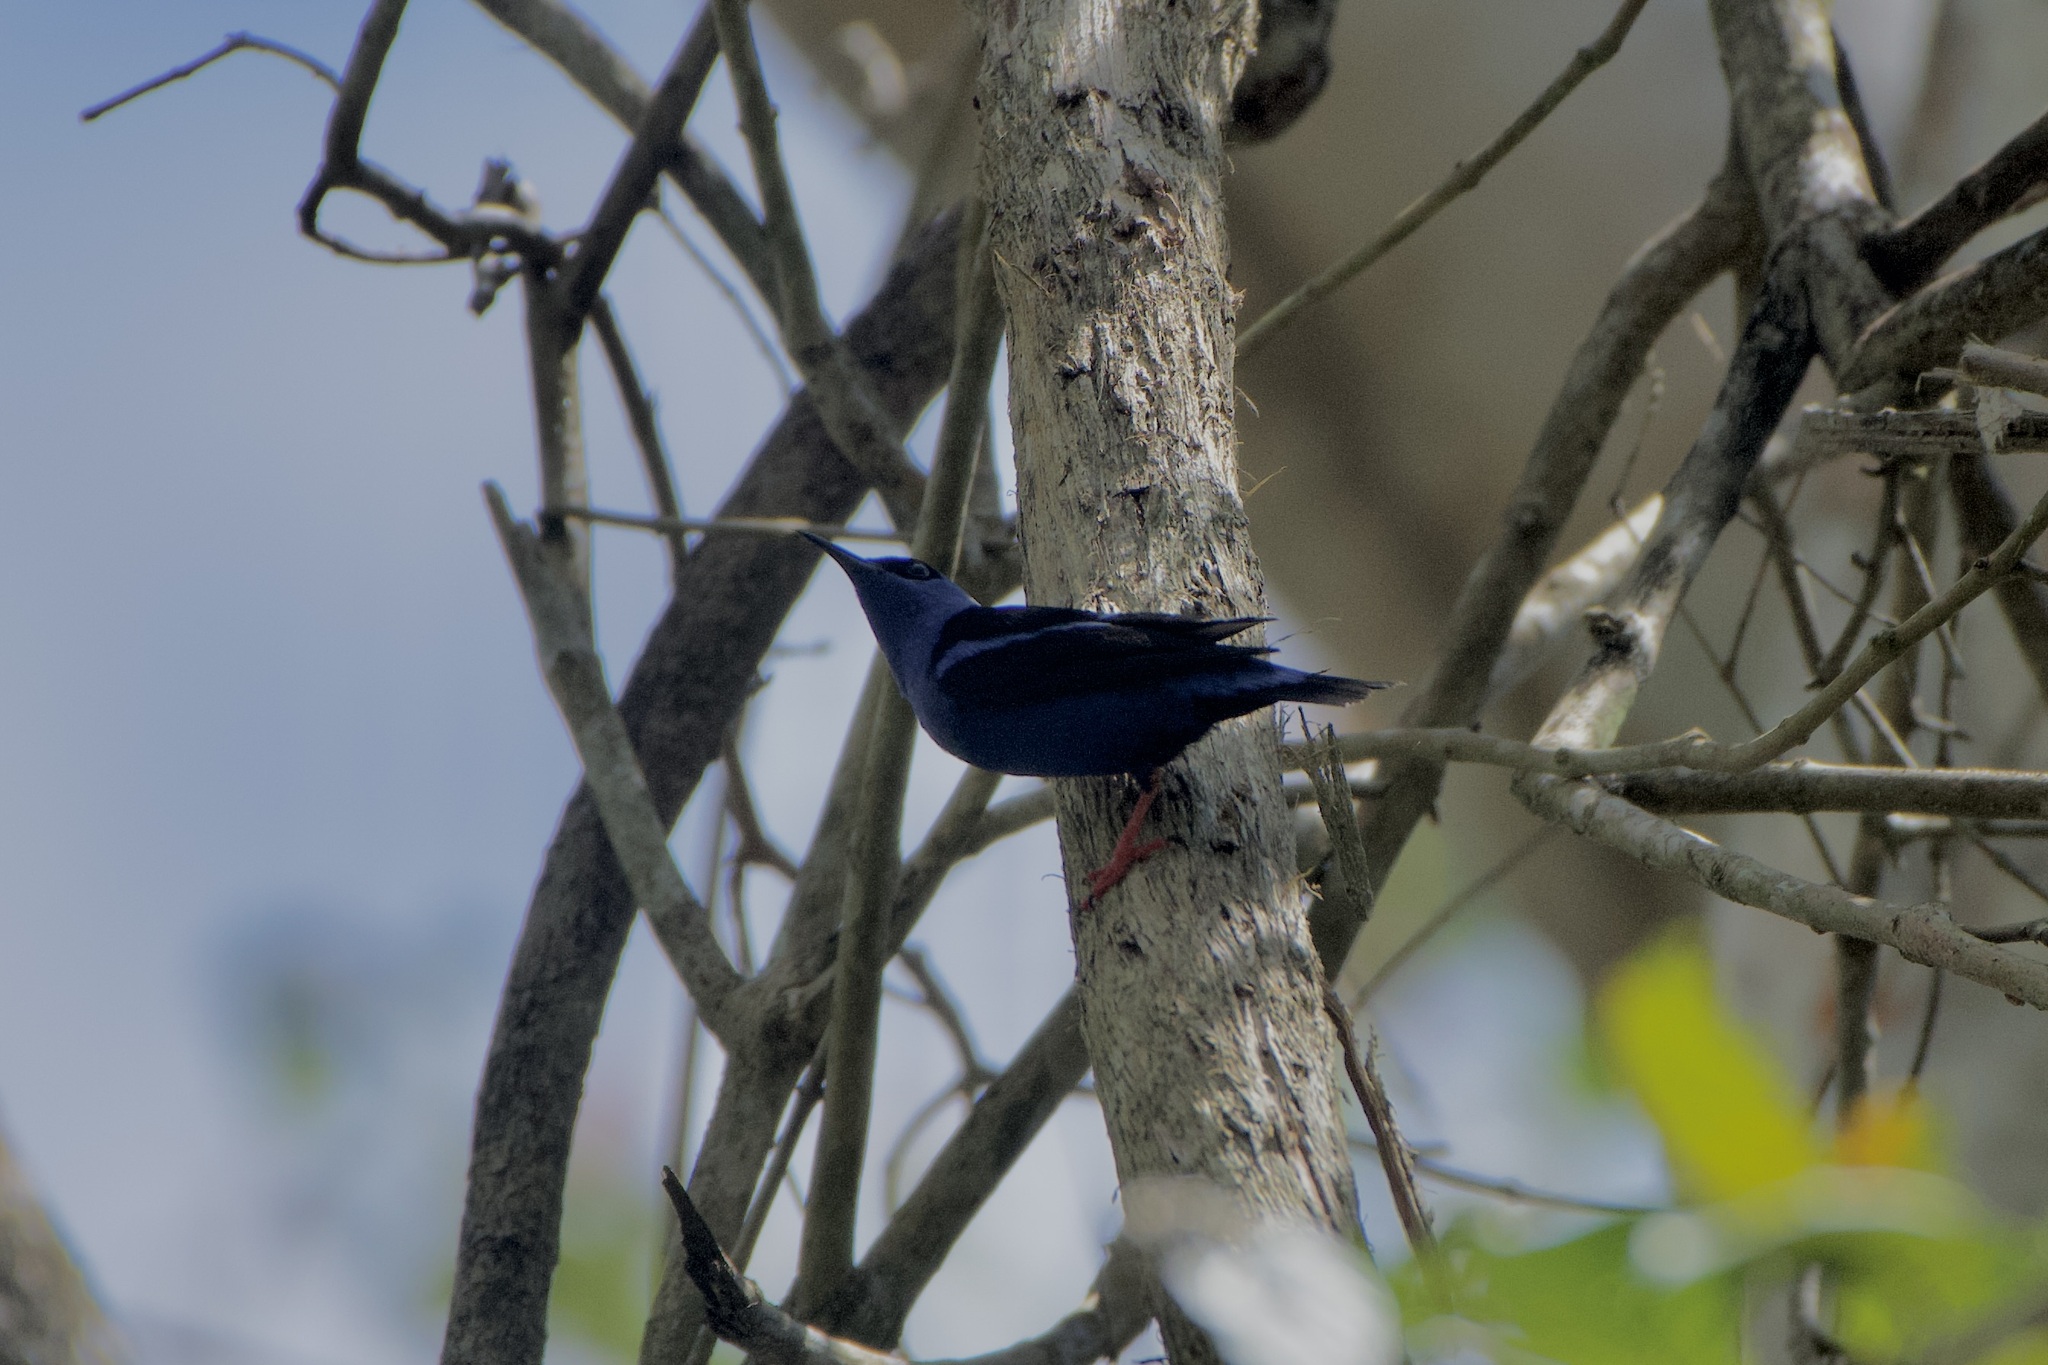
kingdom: Animalia
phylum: Chordata
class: Aves
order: Passeriformes
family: Thraupidae
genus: Cyanerpes
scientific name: Cyanerpes cyaneus
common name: Red-legged honeycreeper
